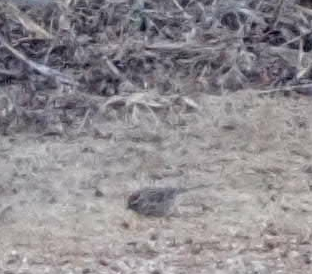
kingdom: Animalia
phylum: Chordata
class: Aves
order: Passeriformes
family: Passerellidae
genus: Spizelloides
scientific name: Spizelloides arborea
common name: American tree sparrow
